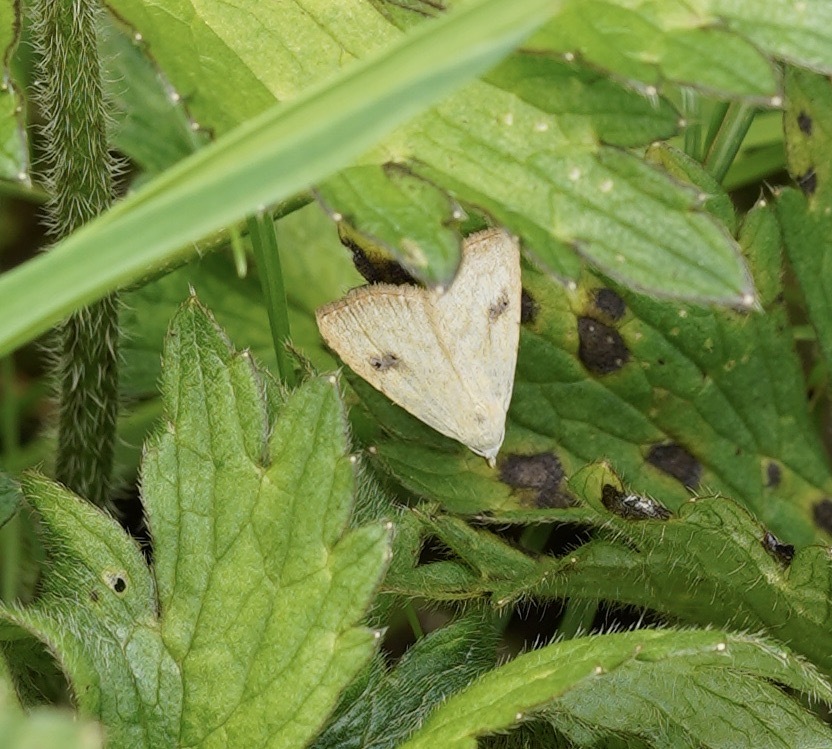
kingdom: Animalia
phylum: Arthropoda
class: Insecta
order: Lepidoptera
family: Erebidae
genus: Rivula
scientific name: Rivula sericealis
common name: Straw dot
